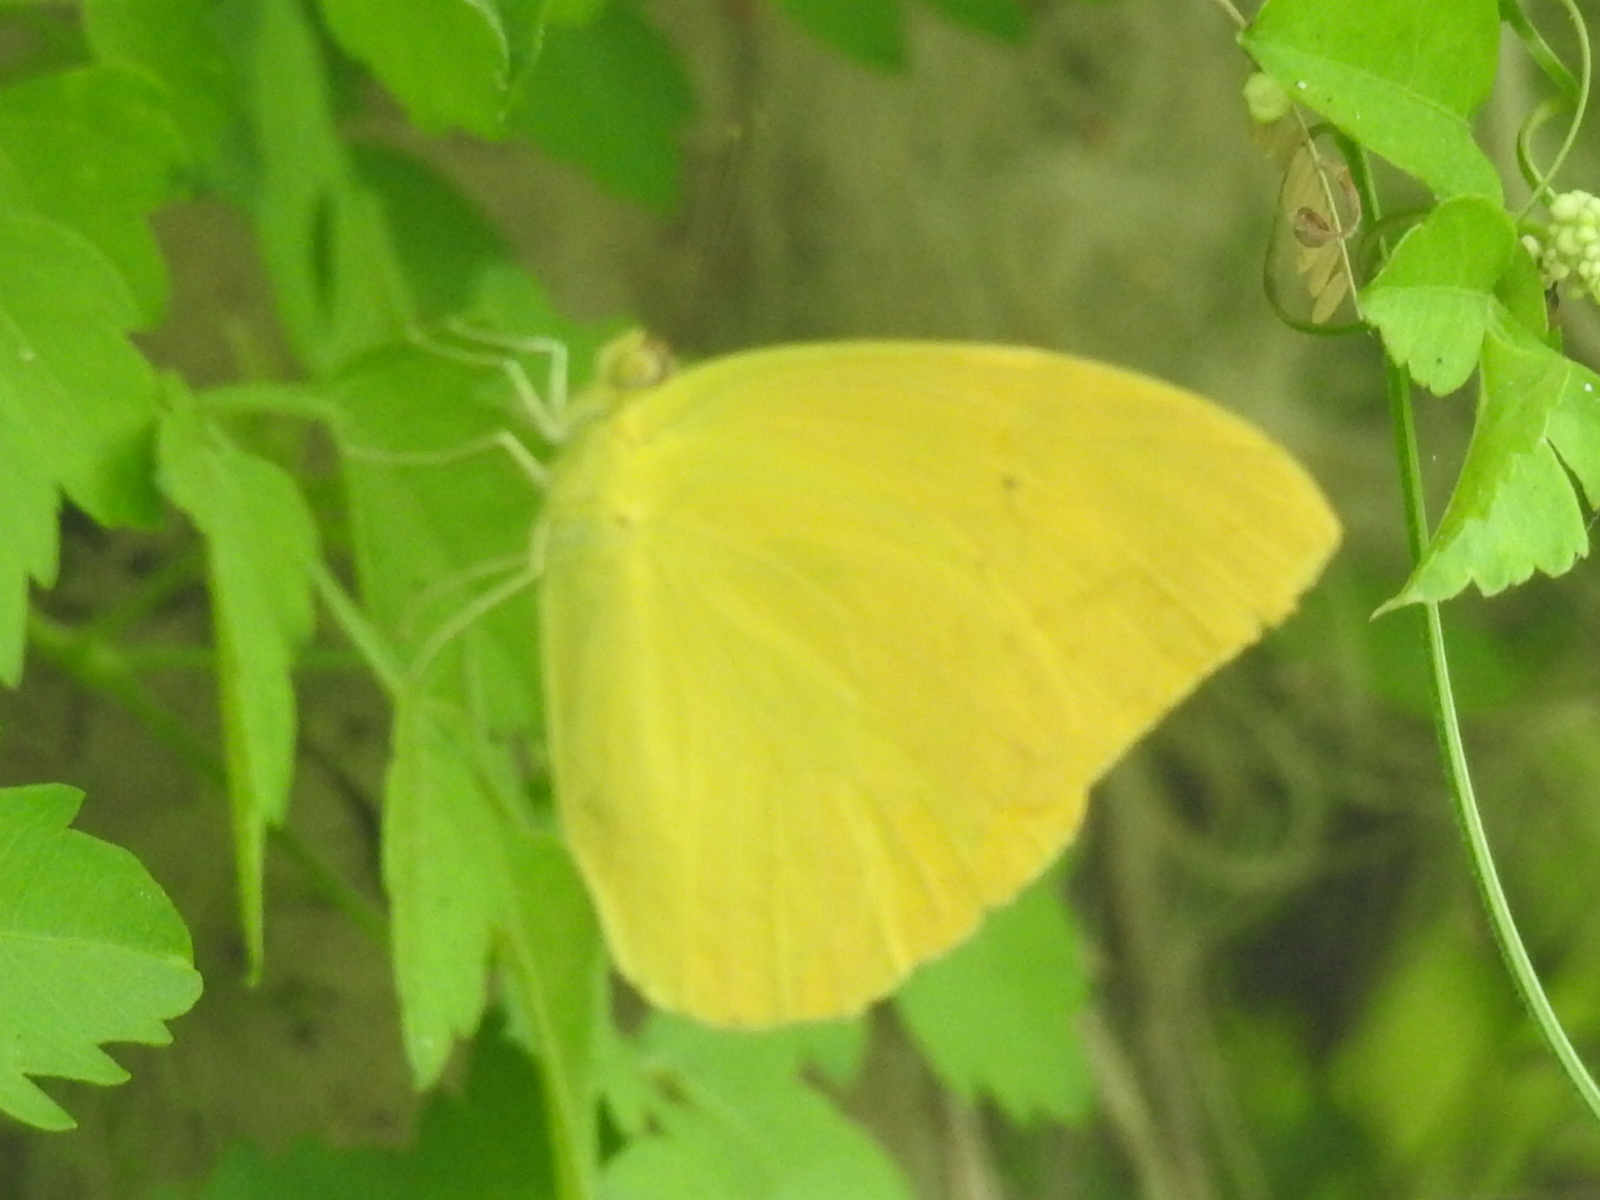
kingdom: Animalia
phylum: Arthropoda
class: Insecta
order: Lepidoptera
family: Pieridae
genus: Phoebis
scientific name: Phoebis agarithe
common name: Large orange sulphur
